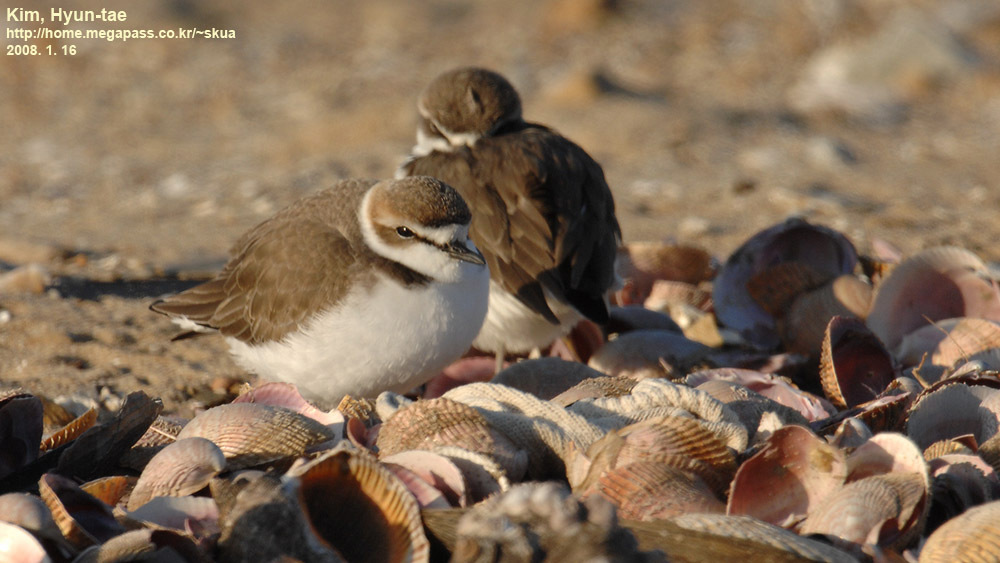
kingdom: Animalia
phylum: Chordata
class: Aves
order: Charadriiformes
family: Charadriidae
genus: Charadrius
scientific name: Charadrius alexandrinus
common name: Kentish plover
